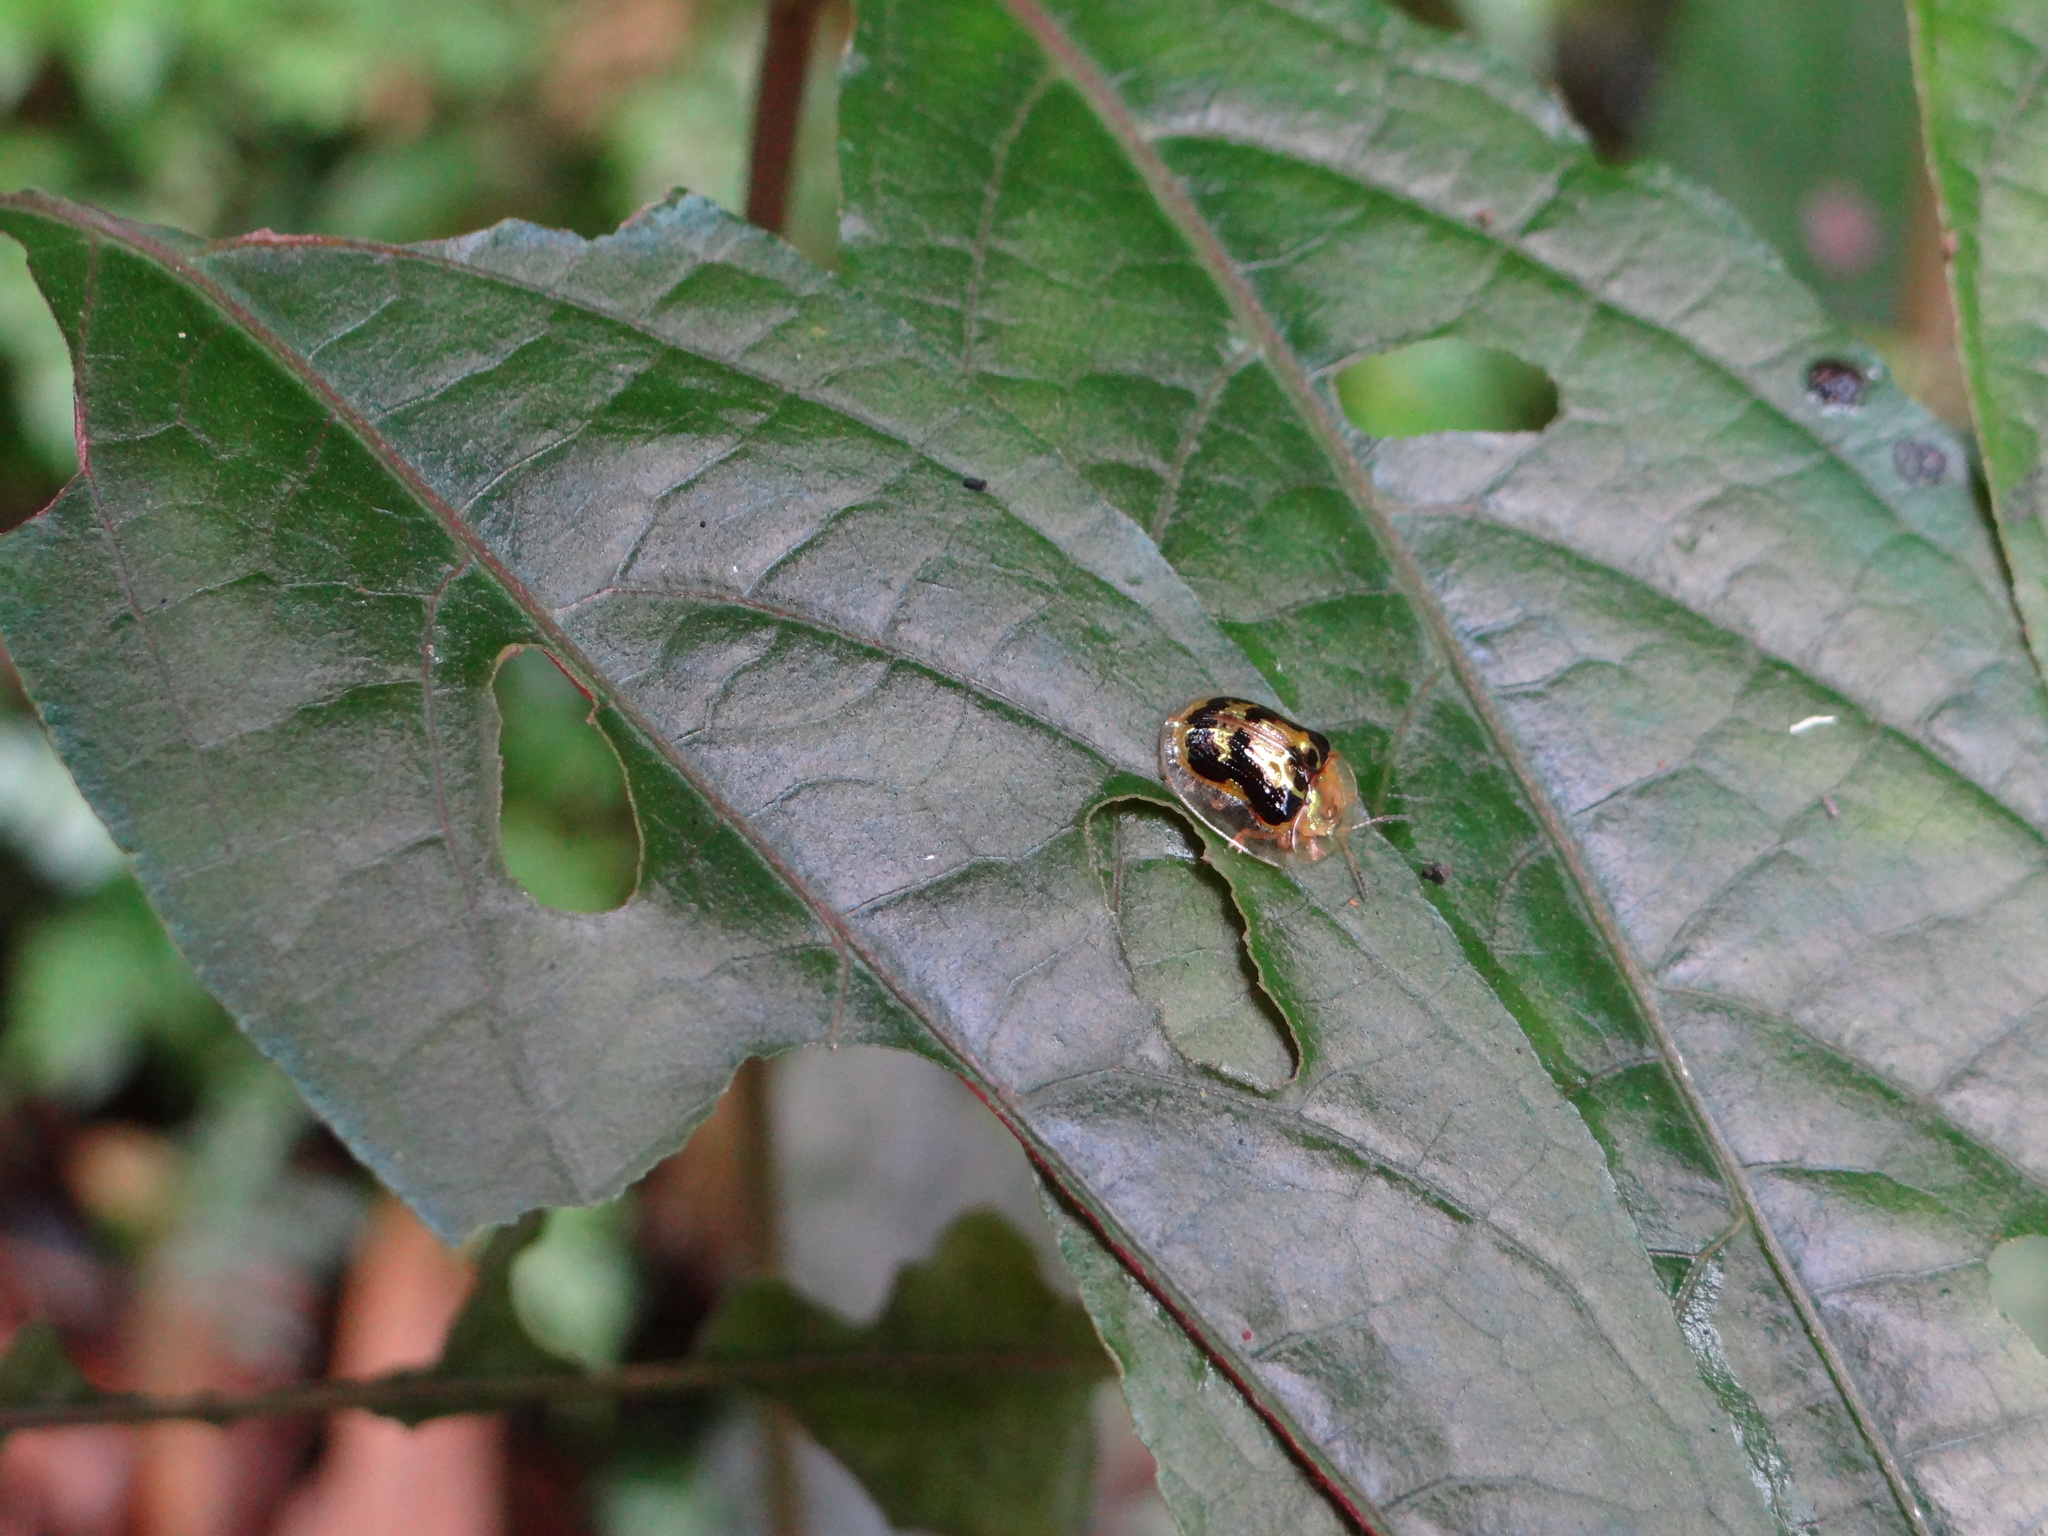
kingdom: Animalia
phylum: Arthropoda
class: Insecta
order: Coleoptera
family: Chrysomelidae
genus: Cassida
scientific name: Cassida sauteri
